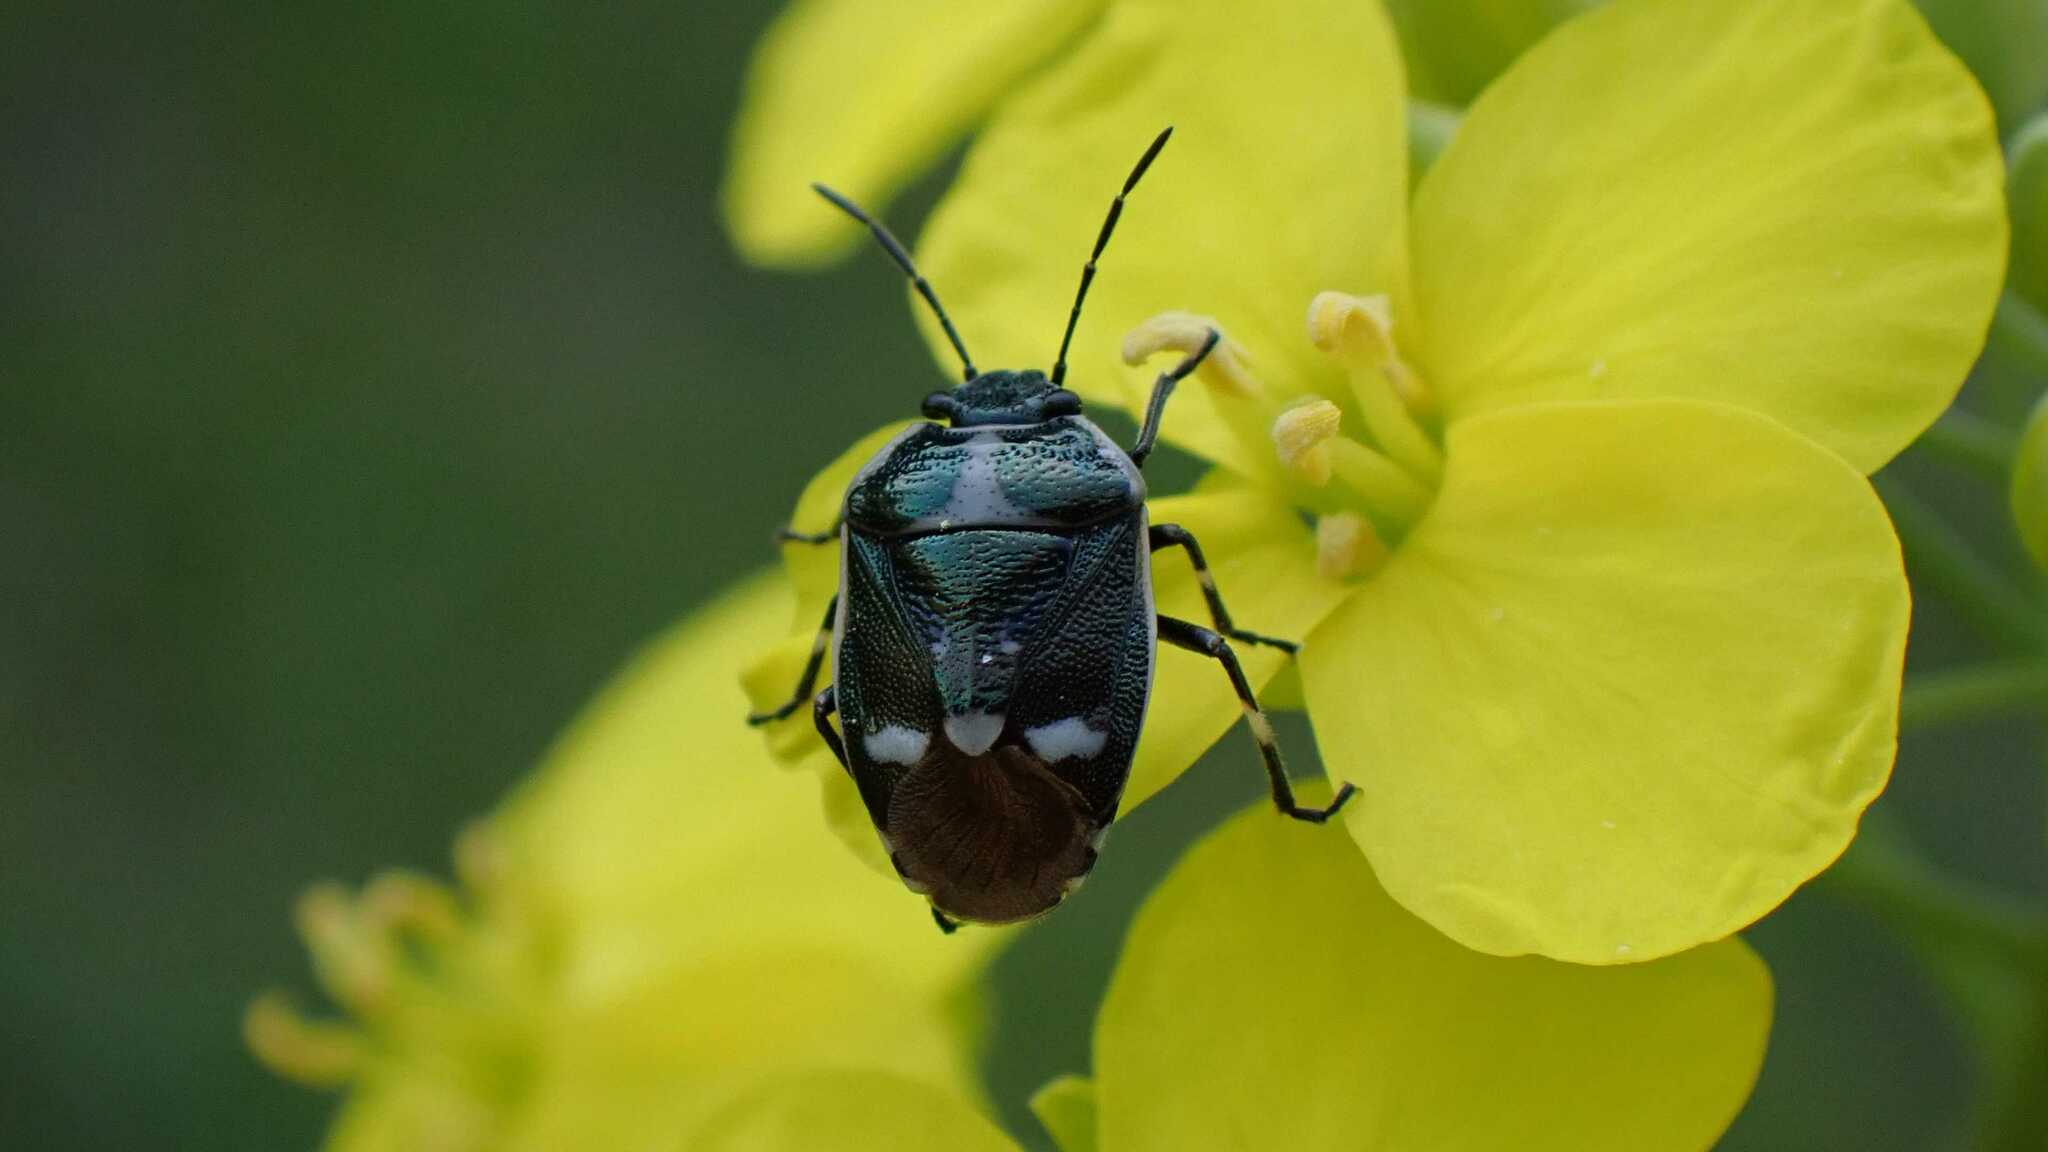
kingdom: Animalia
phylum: Arthropoda
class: Insecta
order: Hemiptera
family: Pentatomidae
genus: Eurydema
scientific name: Eurydema oleracea
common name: Cabbage bug
